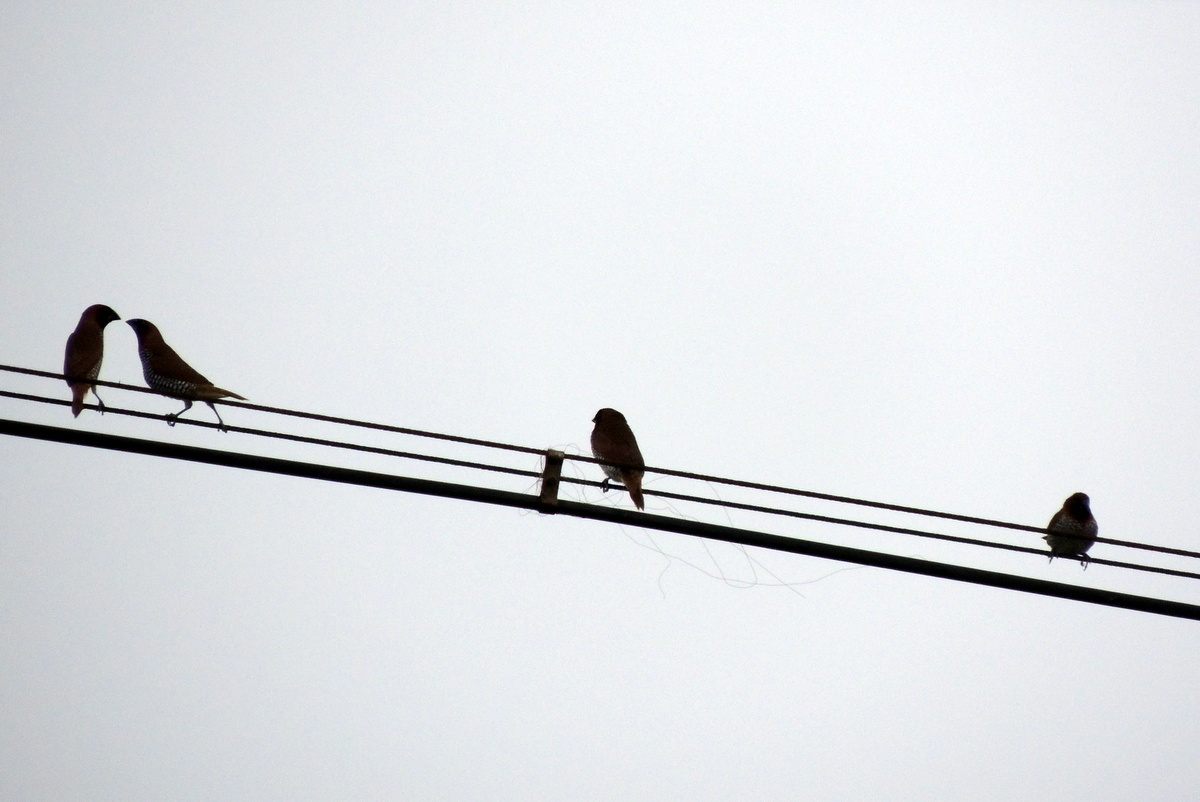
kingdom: Animalia
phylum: Chordata
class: Aves
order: Passeriformes
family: Estrildidae
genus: Lonchura
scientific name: Lonchura punctulata
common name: Scaly-breasted munia
